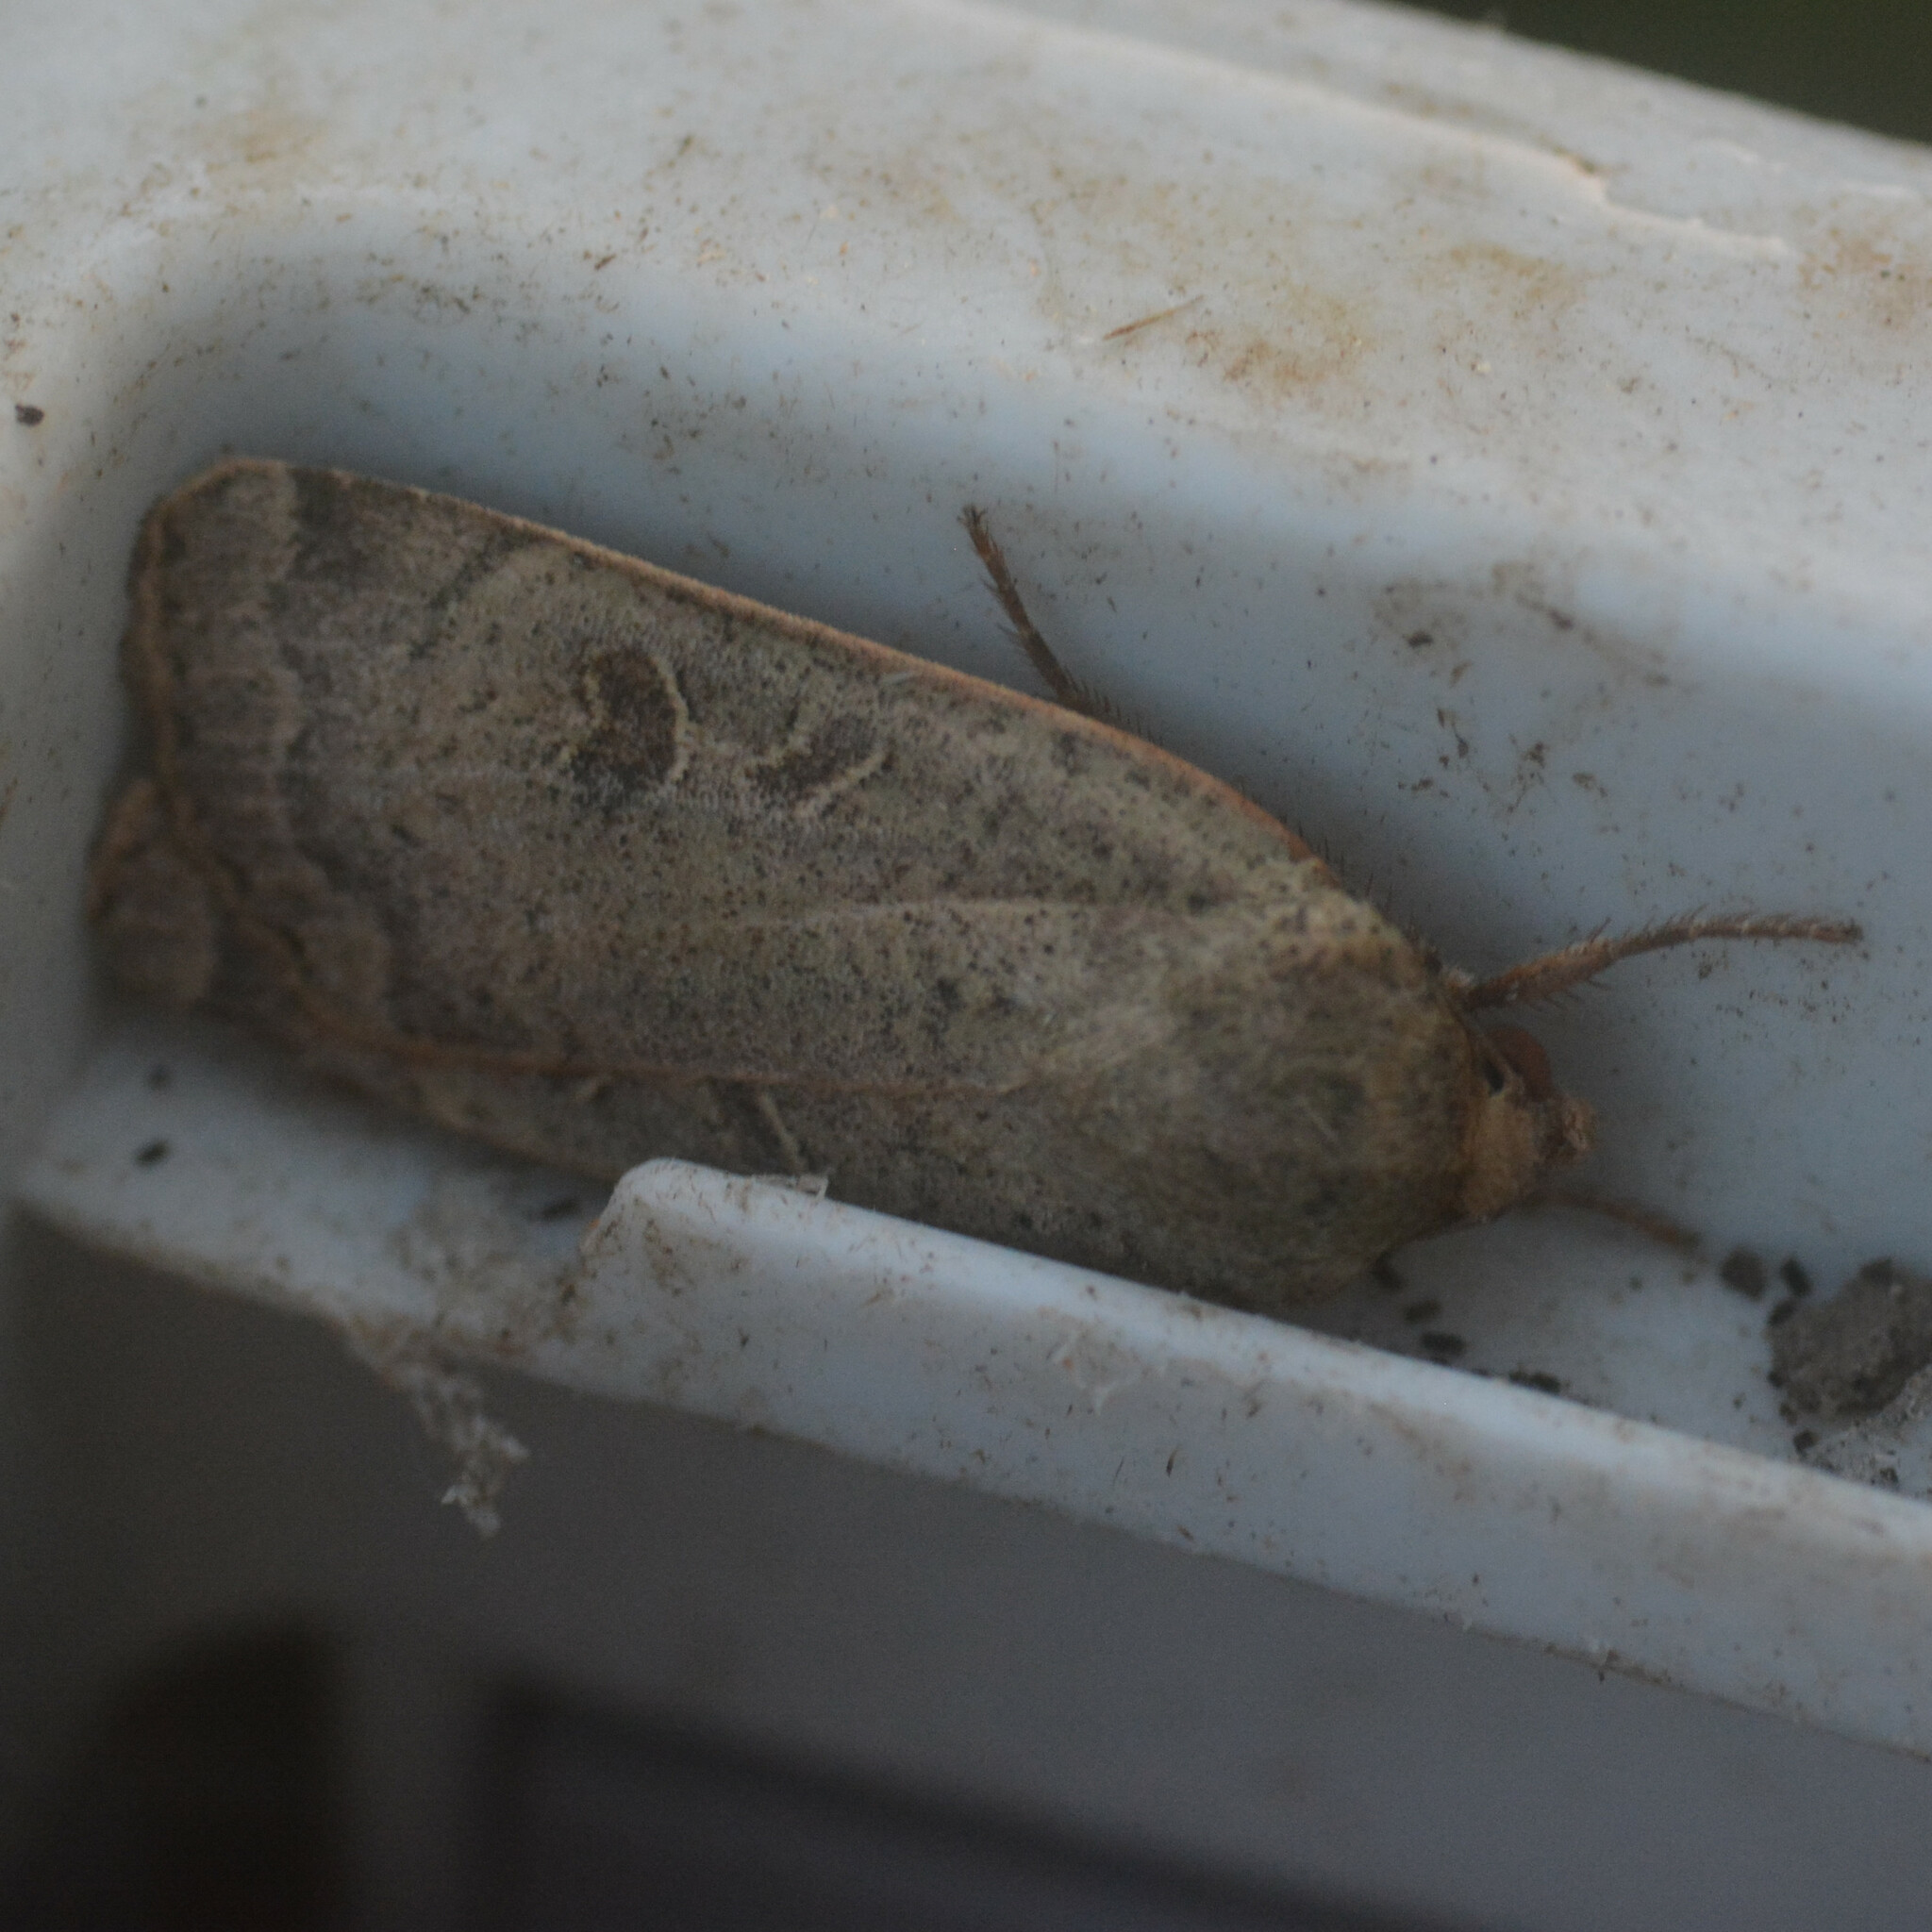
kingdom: Animalia
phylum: Arthropoda
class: Insecta
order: Lepidoptera
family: Noctuidae
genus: Noctua
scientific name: Noctua comes
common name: Lesser yellow underwing
